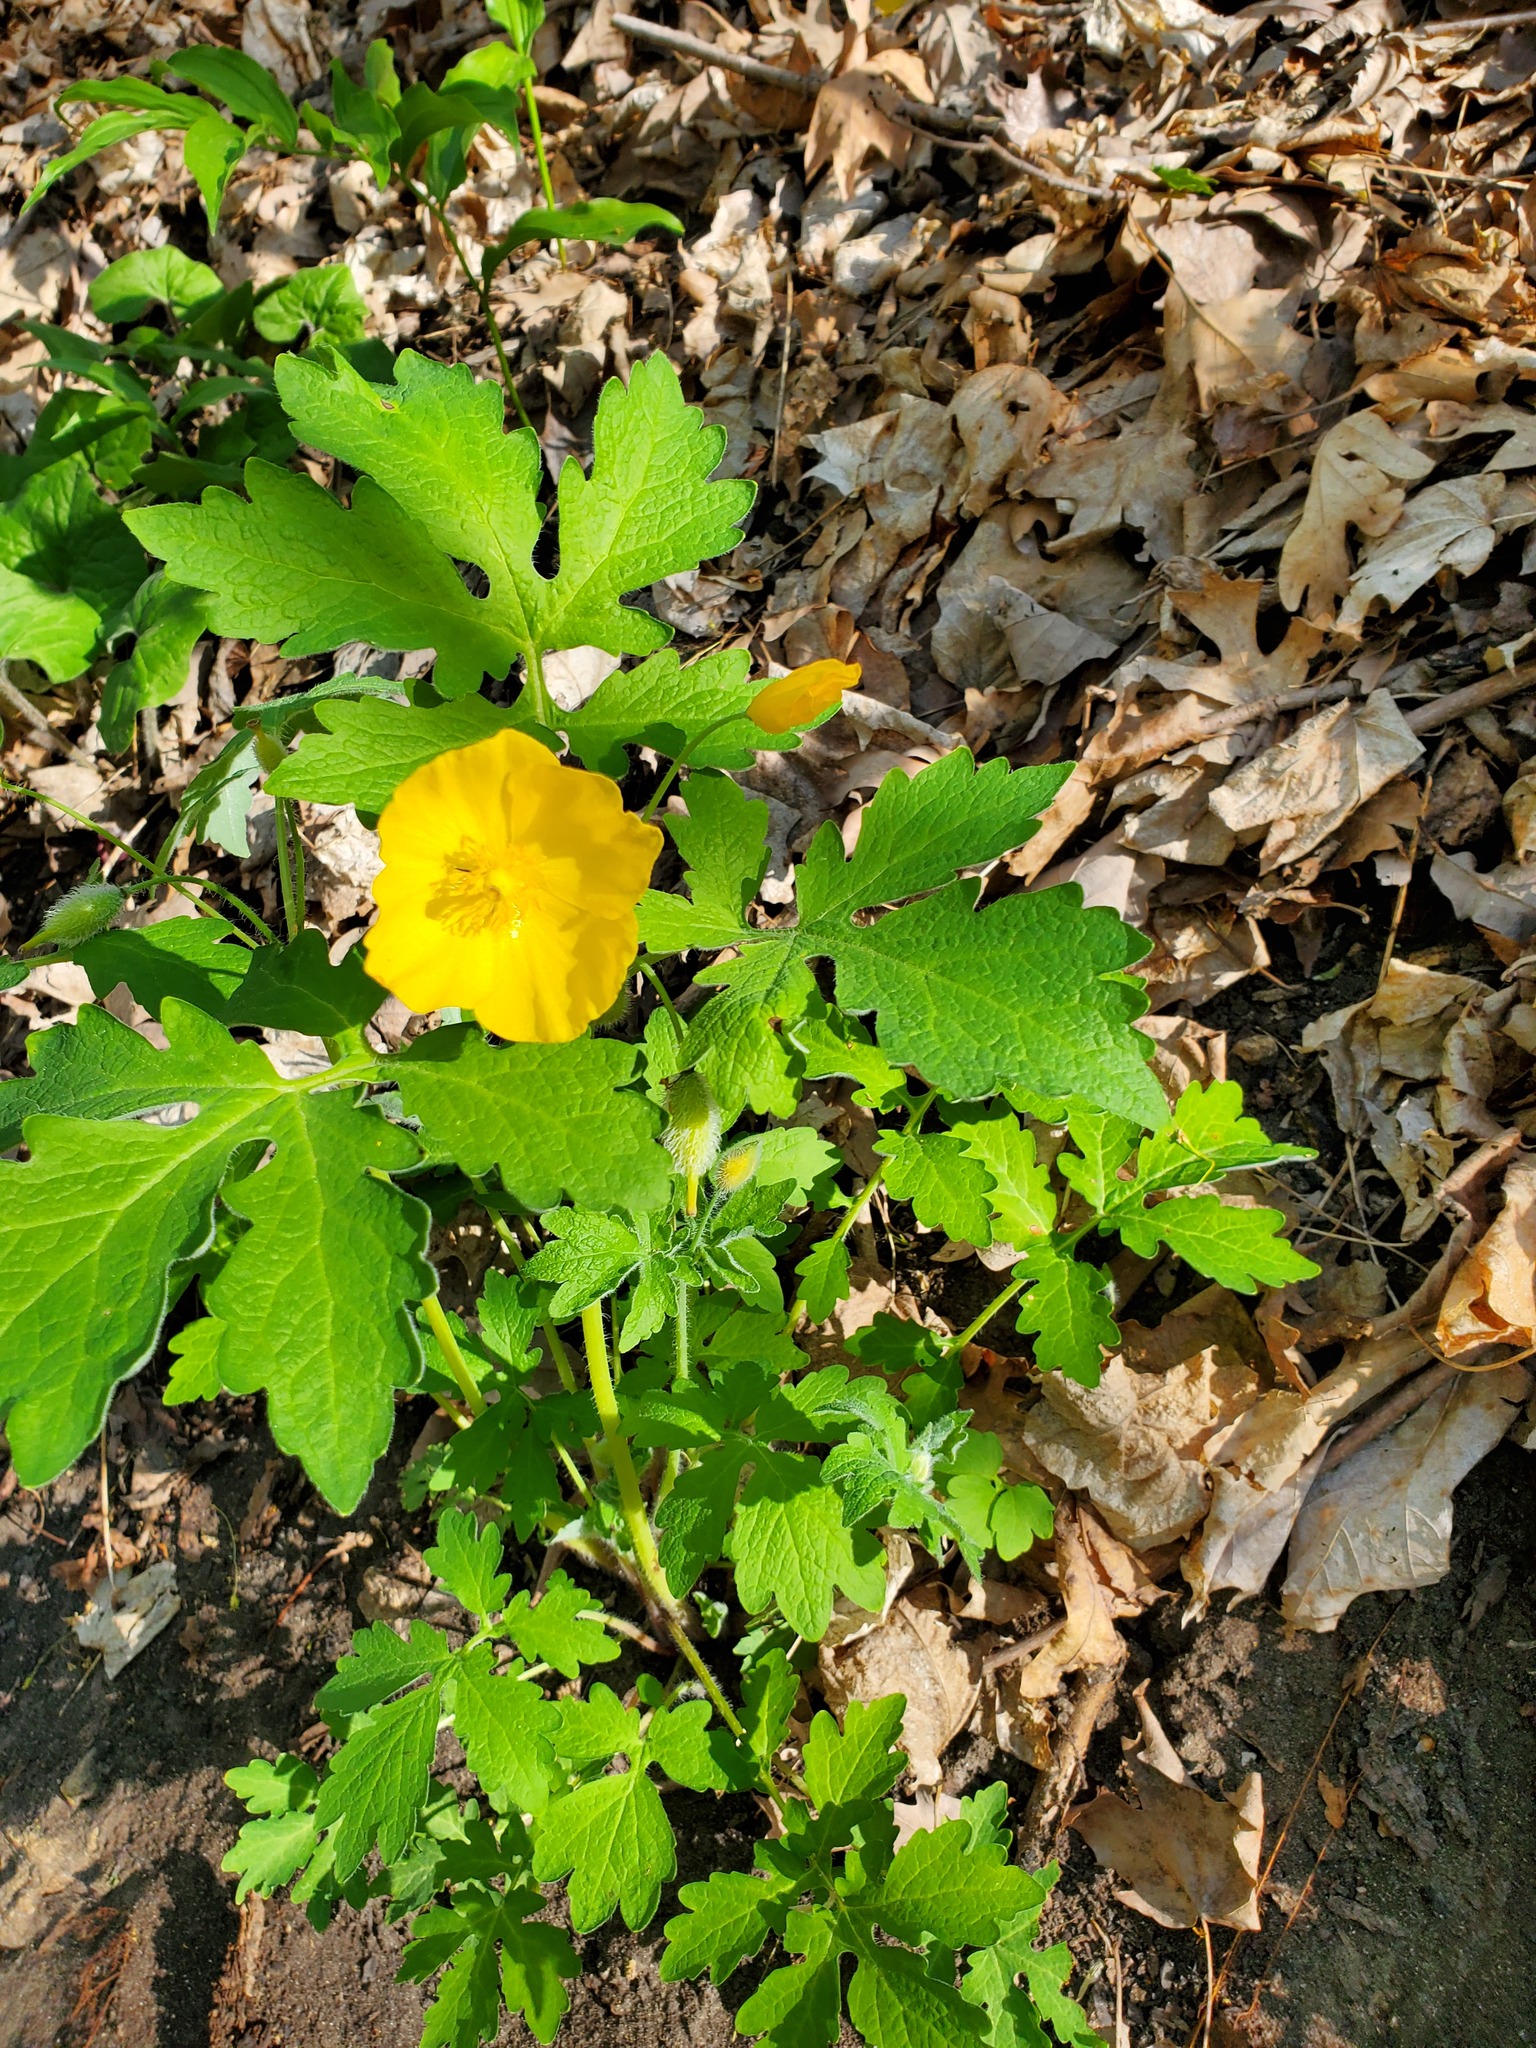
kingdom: Plantae
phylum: Tracheophyta
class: Magnoliopsida
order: Ranunculales
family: Papaveraceae
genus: Stylophorum
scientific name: Stylophorum diphyllum
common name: Celandine poppy
